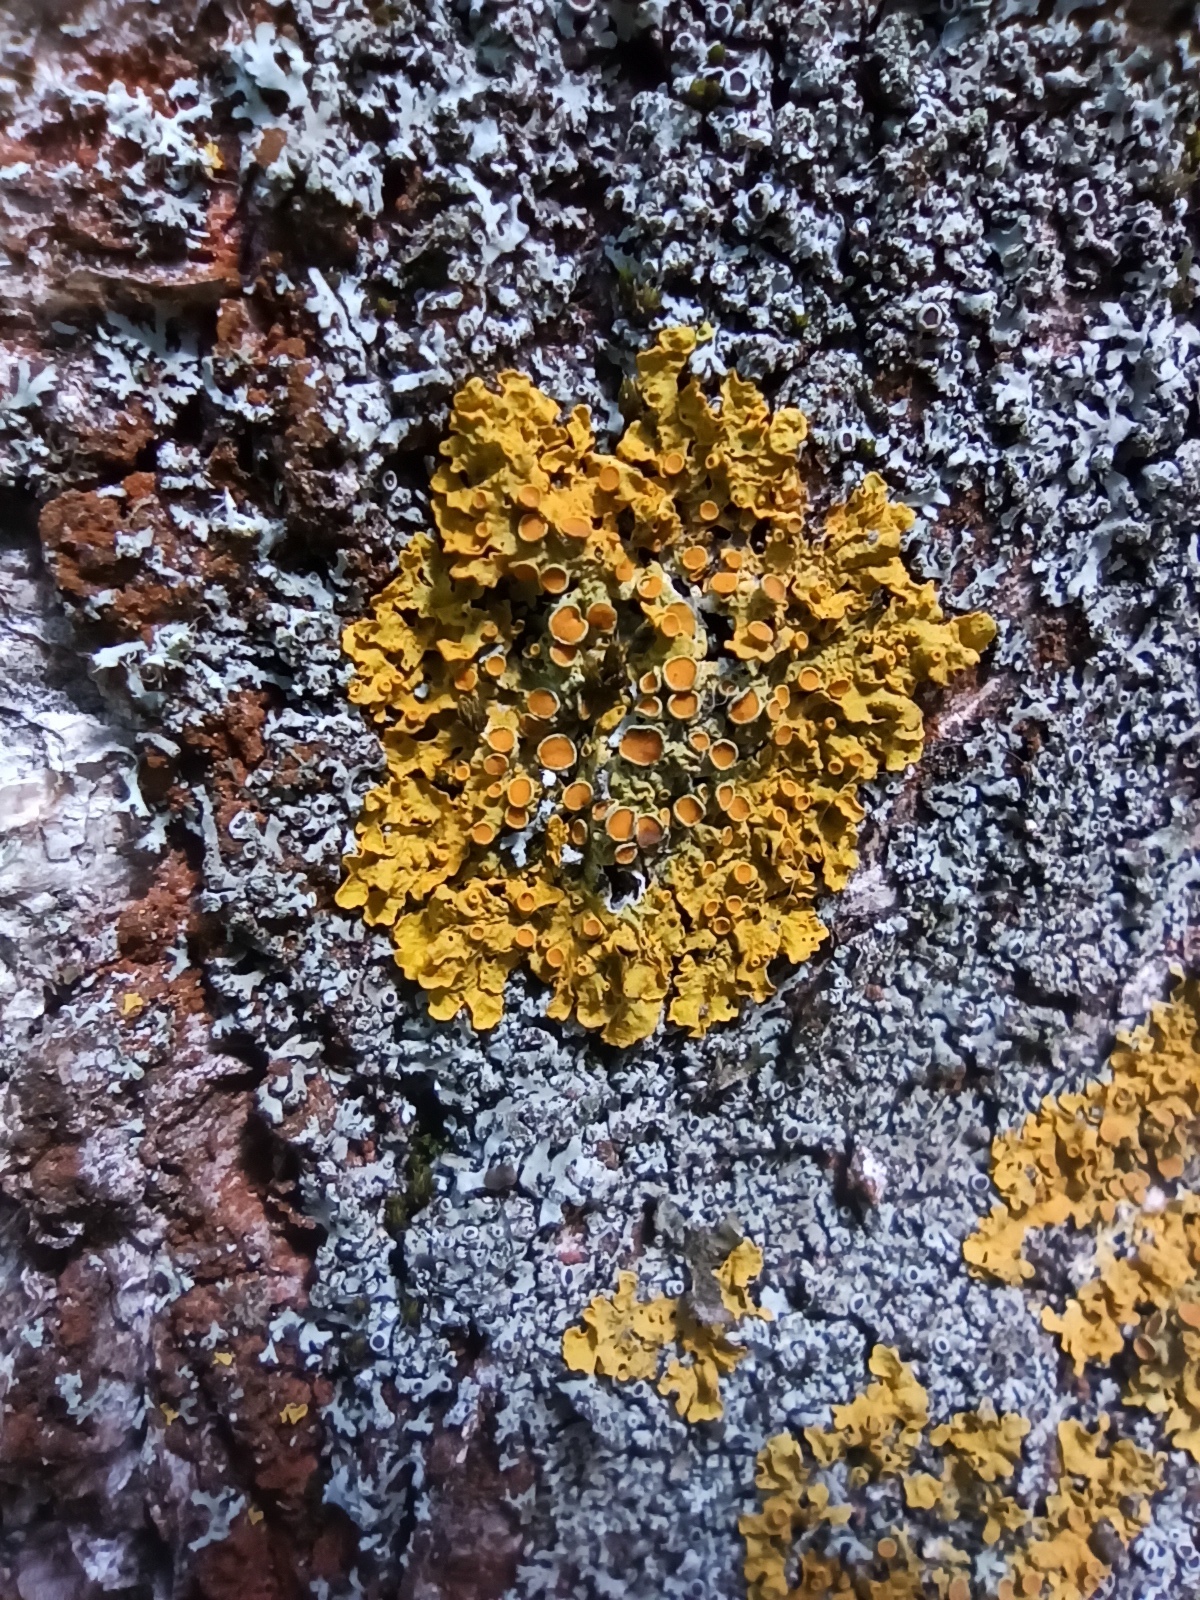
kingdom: Fungi
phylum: Ascomycota
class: Lecanoromycetes
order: Teloschistales
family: Teloschistaceae
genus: Xanthoria
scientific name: Xanthoria parietina
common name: Common orange lichen
